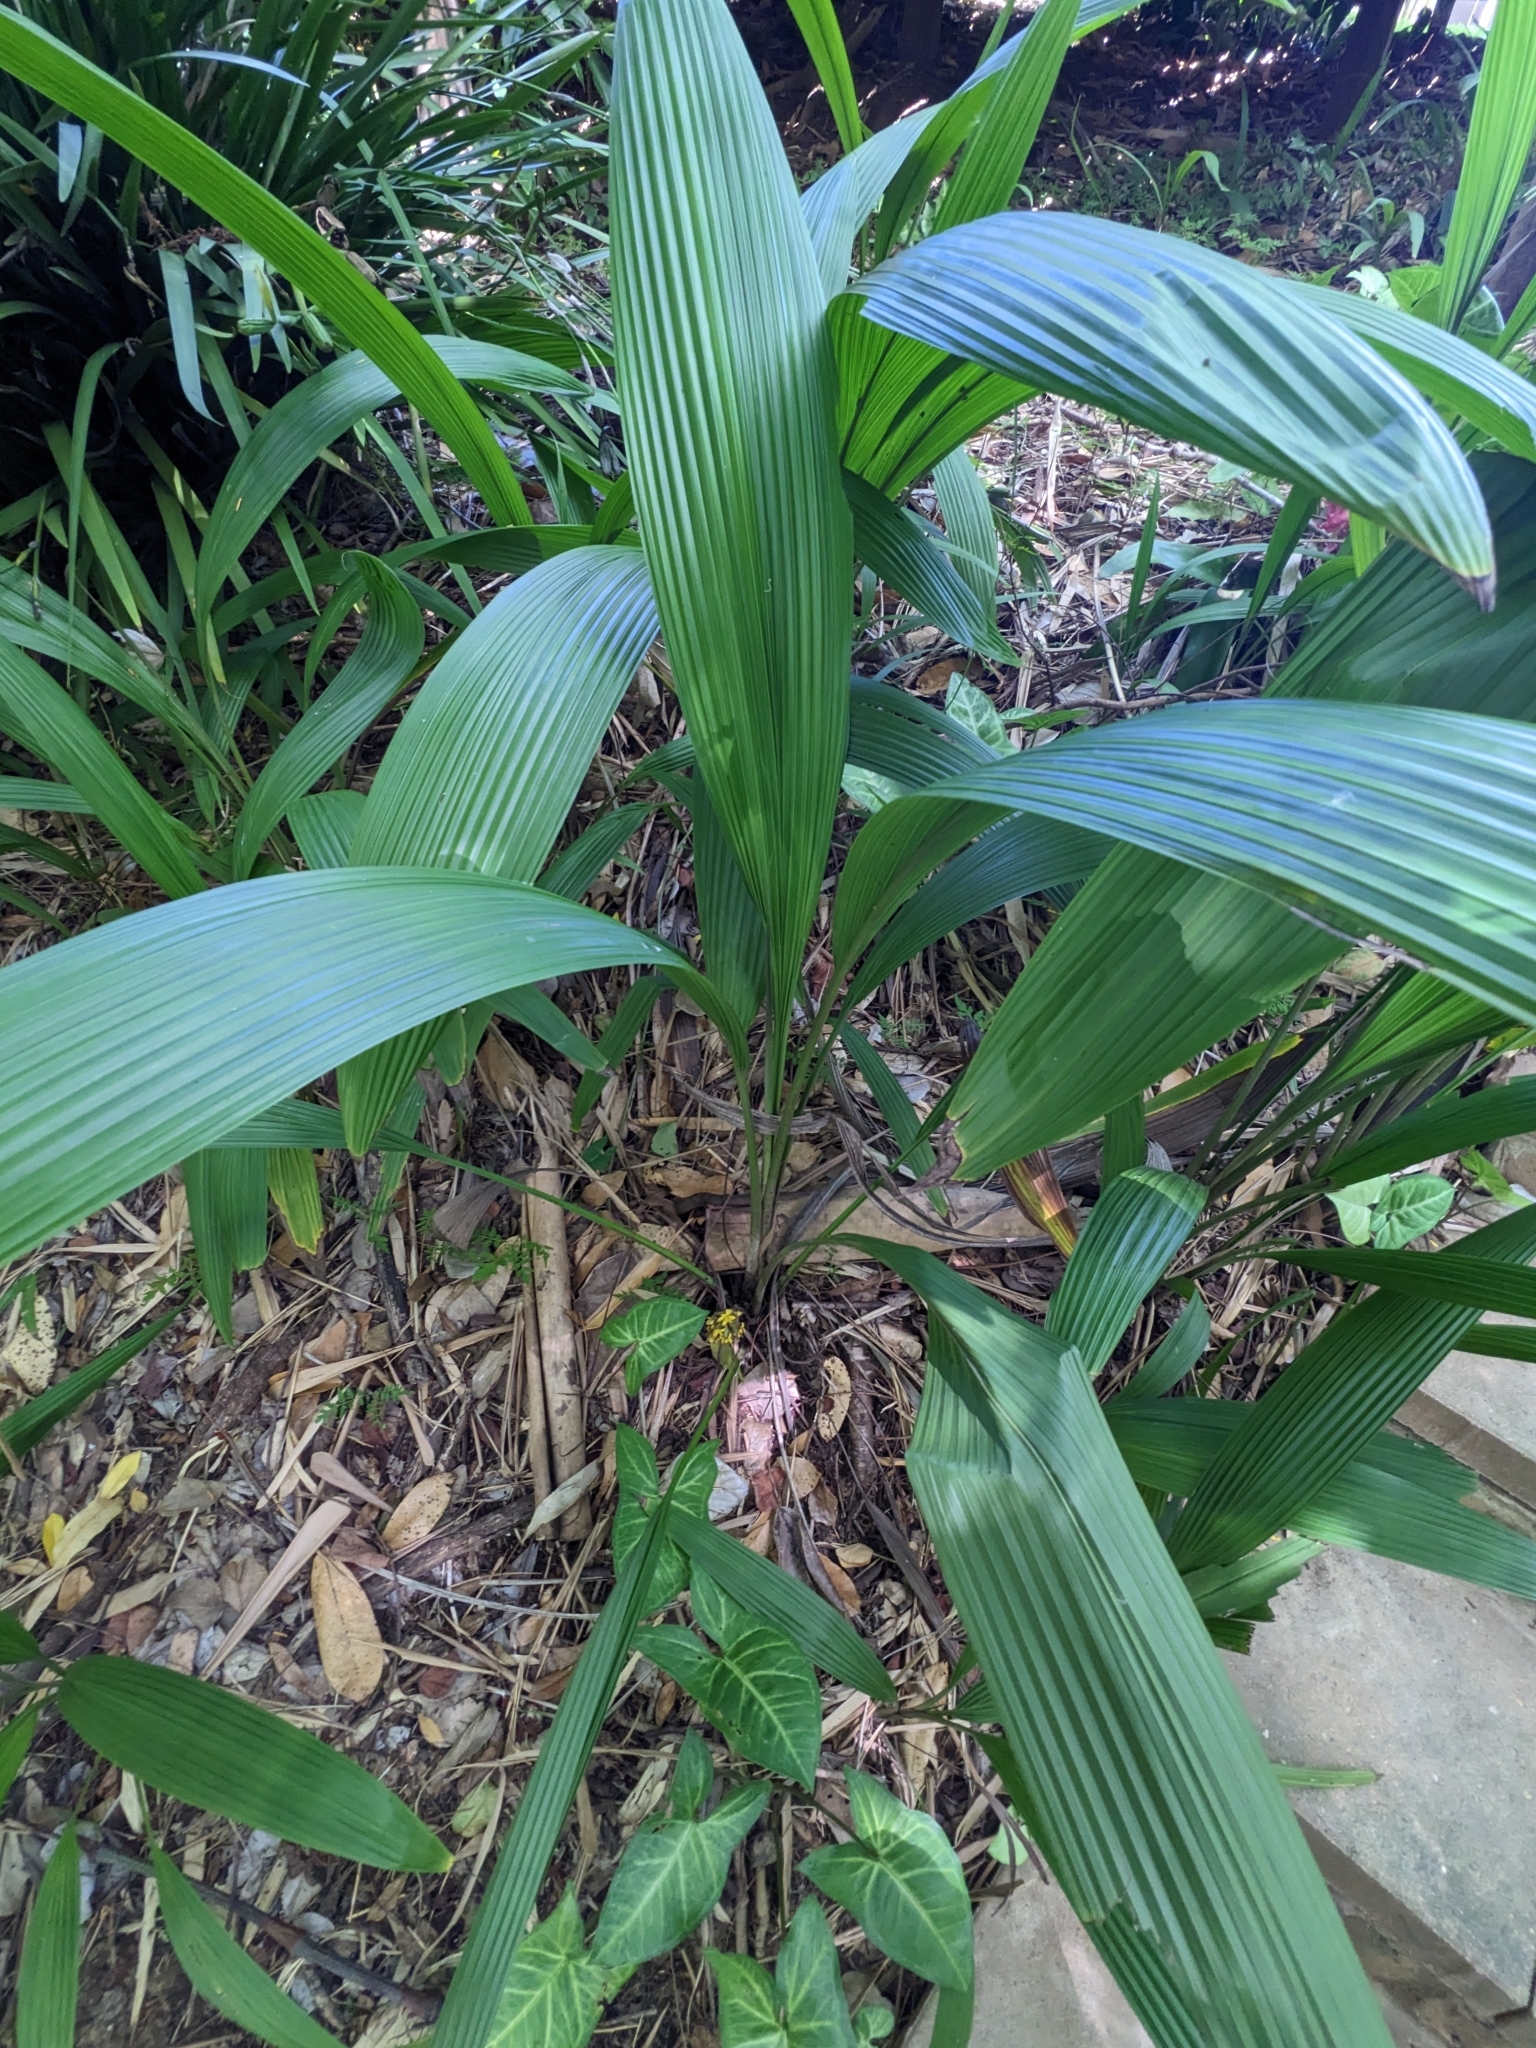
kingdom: Plantae
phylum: Tracheophyta
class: Liliopsida
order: Asparagales
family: Hypoxidaceae
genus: Curculigo
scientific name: Curculigo capitulata
